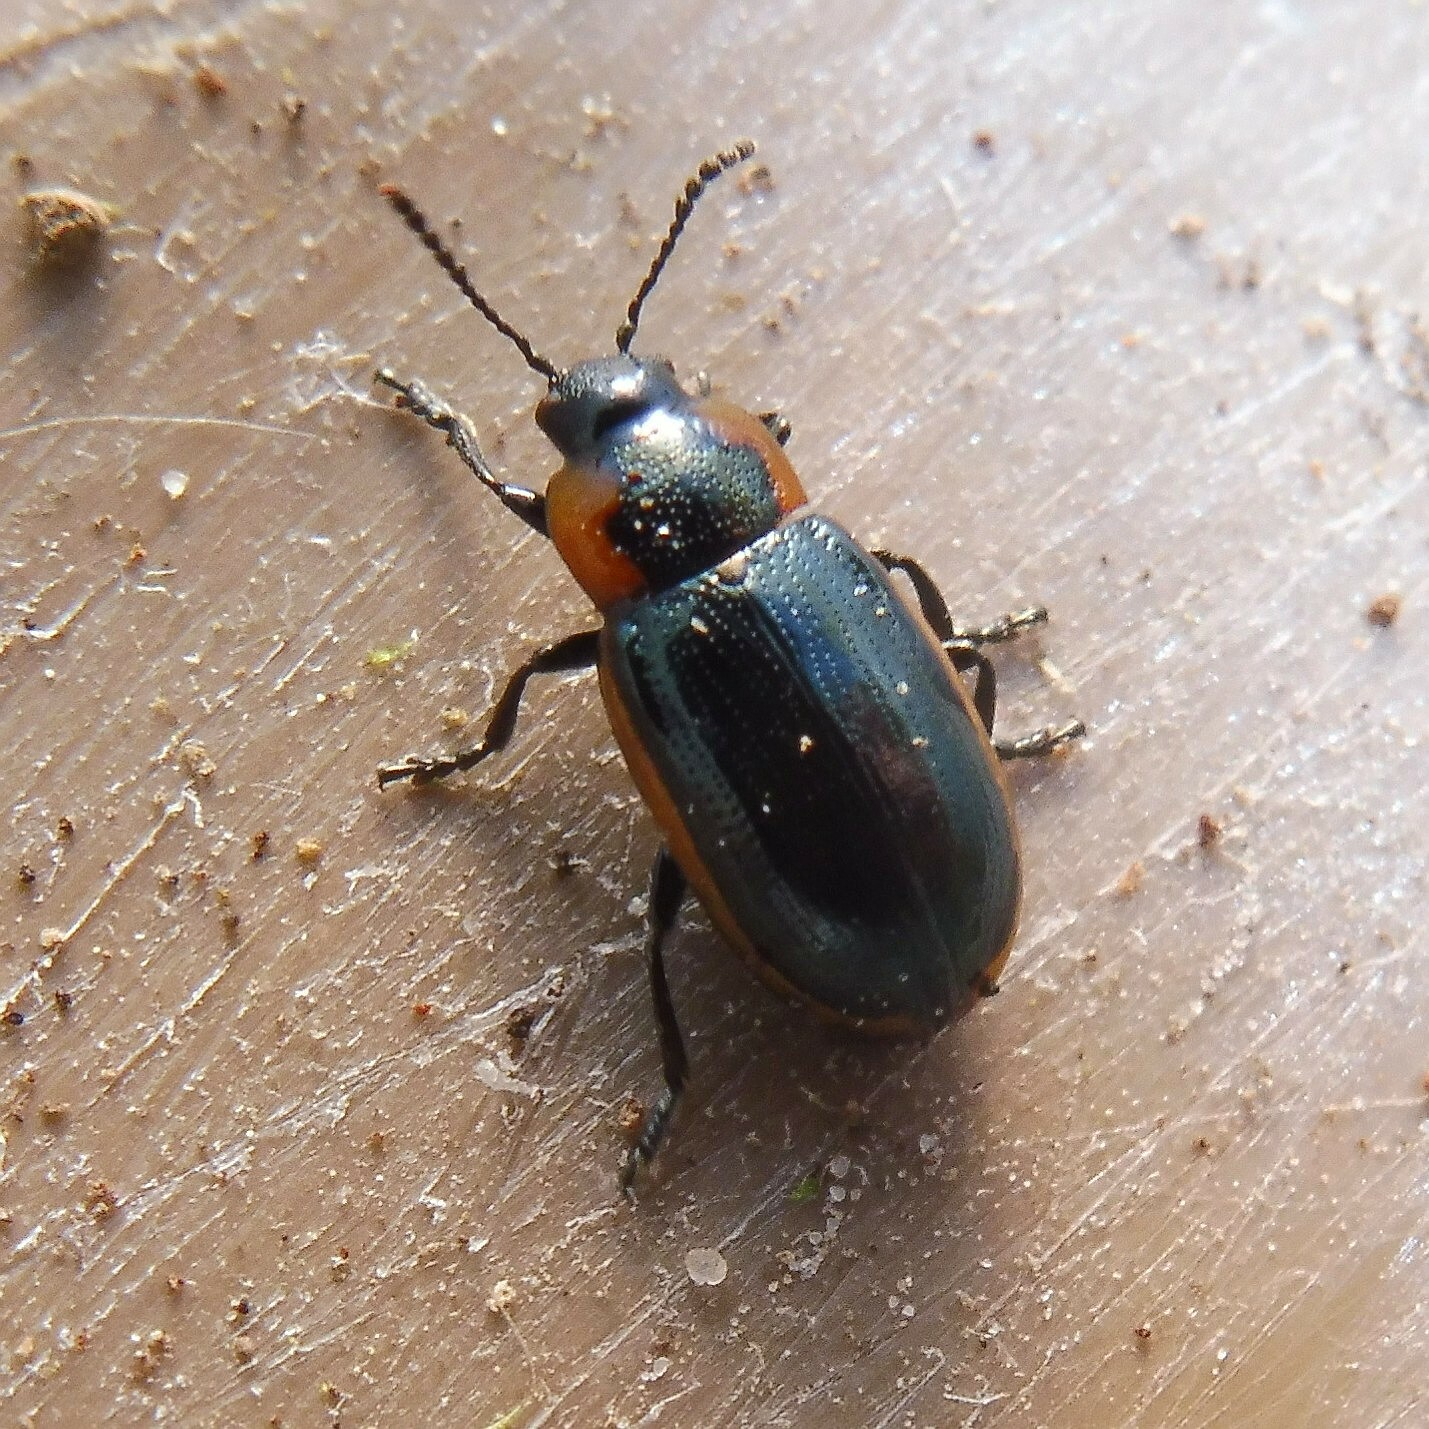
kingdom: Animalia
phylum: Arthropoda
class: Insecta
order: Coleoptera
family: Chrysomelidae
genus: Prasocuris
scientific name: Prasocuris marginella
